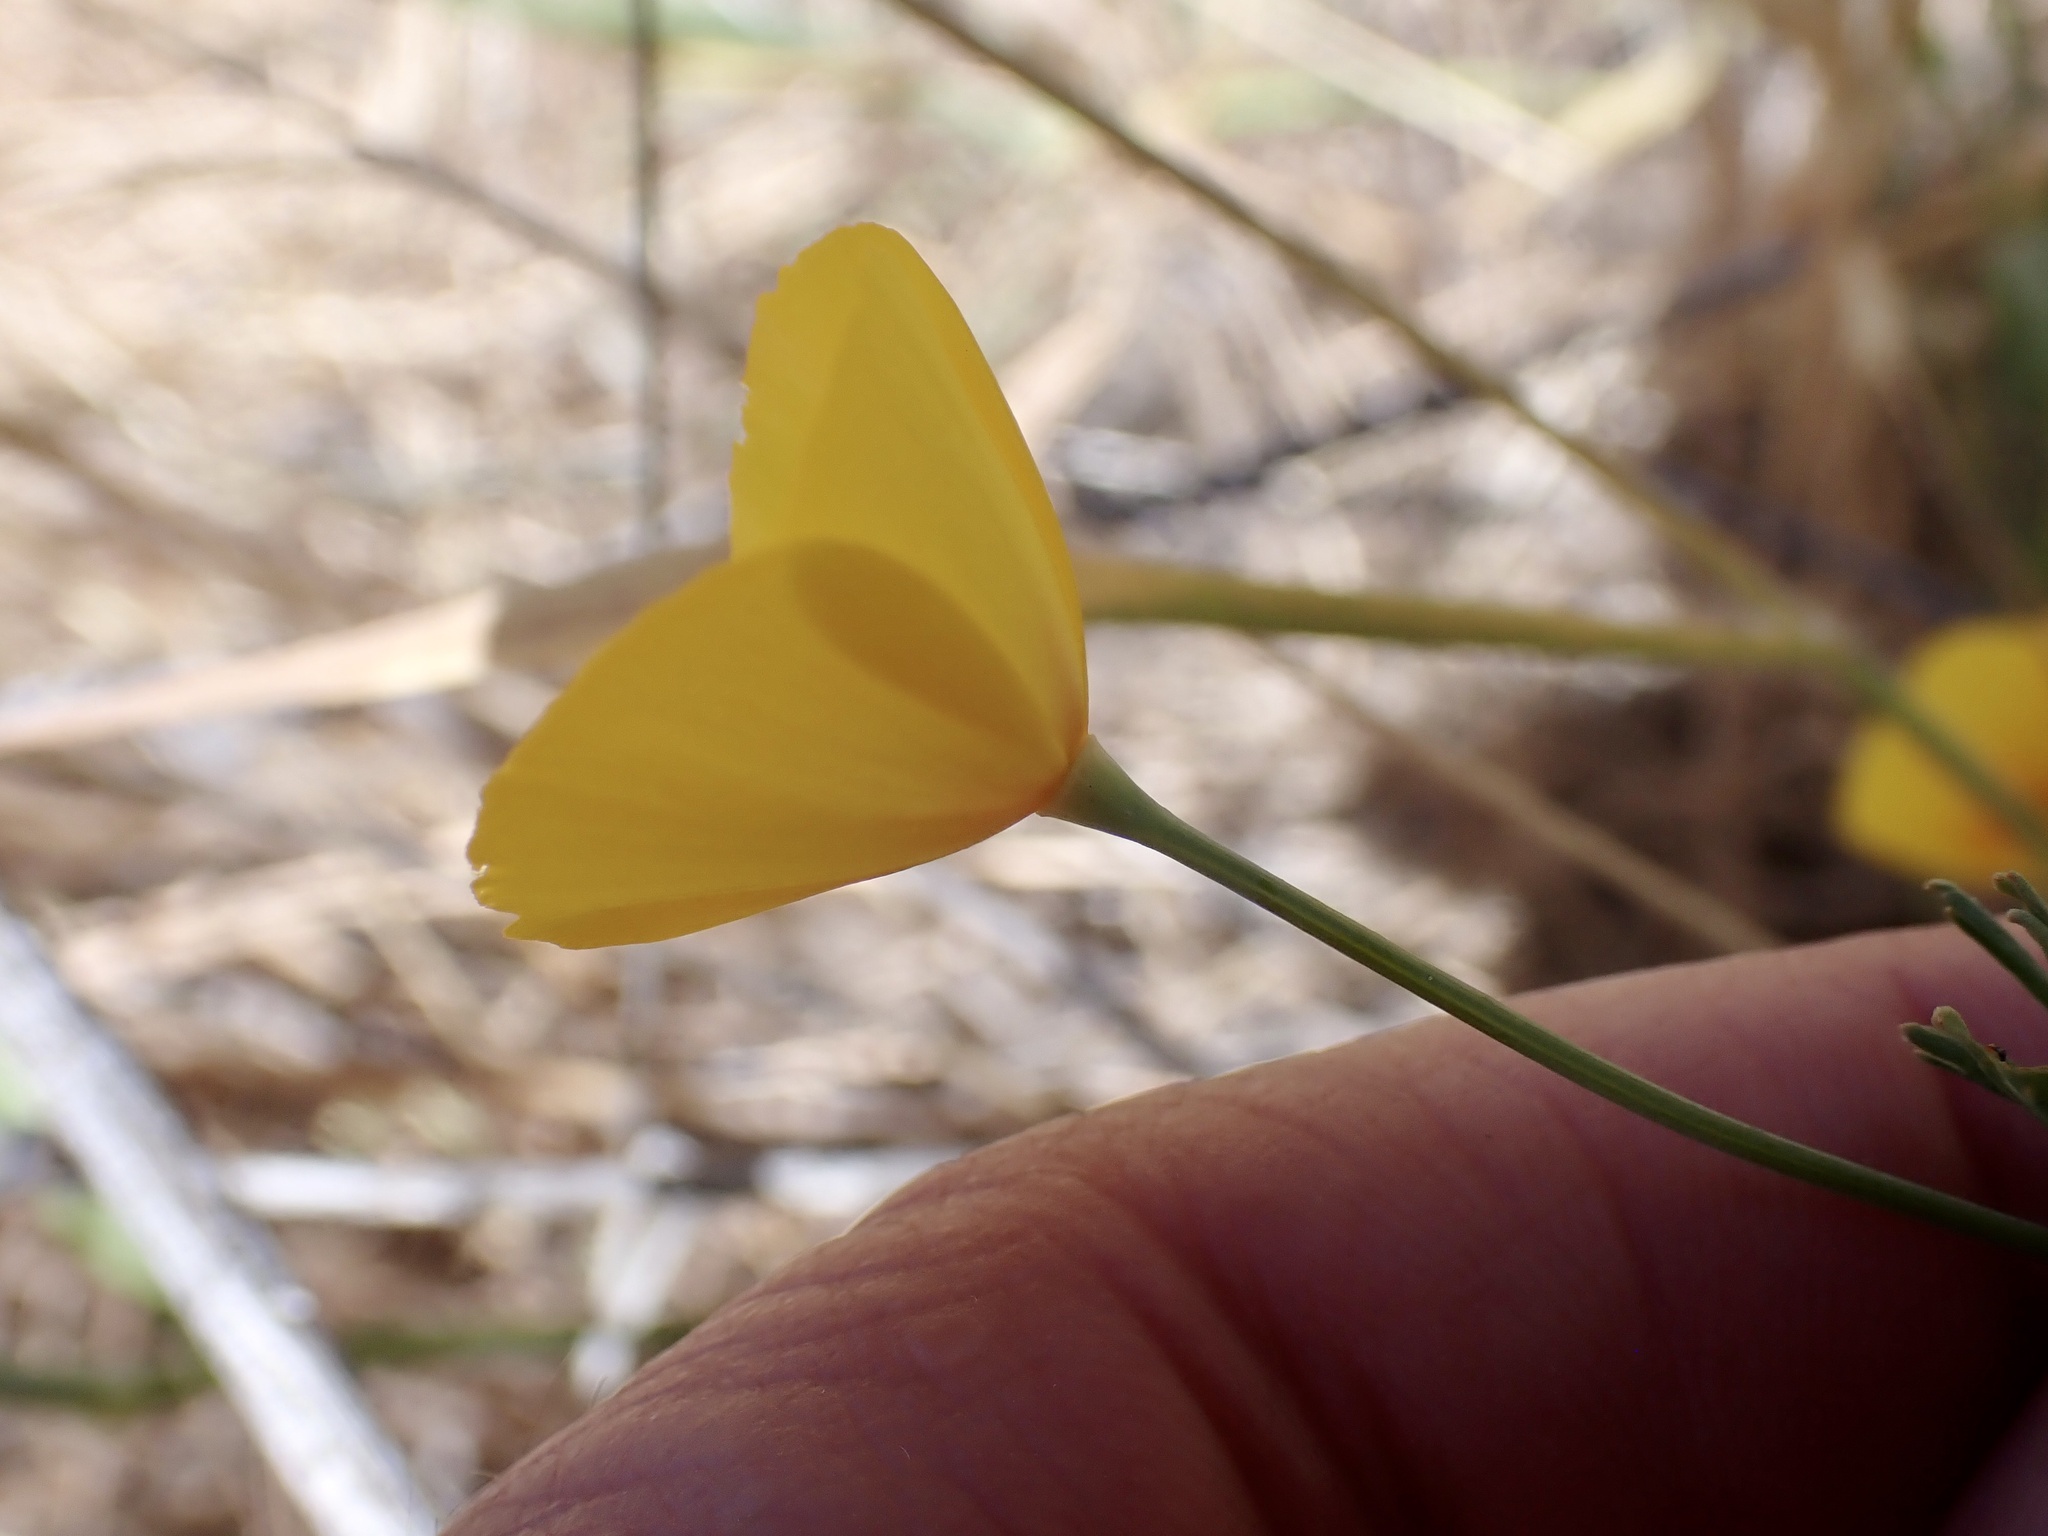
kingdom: Plantae
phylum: Tracheophyta
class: Magnoliopsida
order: Ranunculales
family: Papaveraceae
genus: Eschscholzia
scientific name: Eschscholzia caespitosa
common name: Tufted california-poppy
